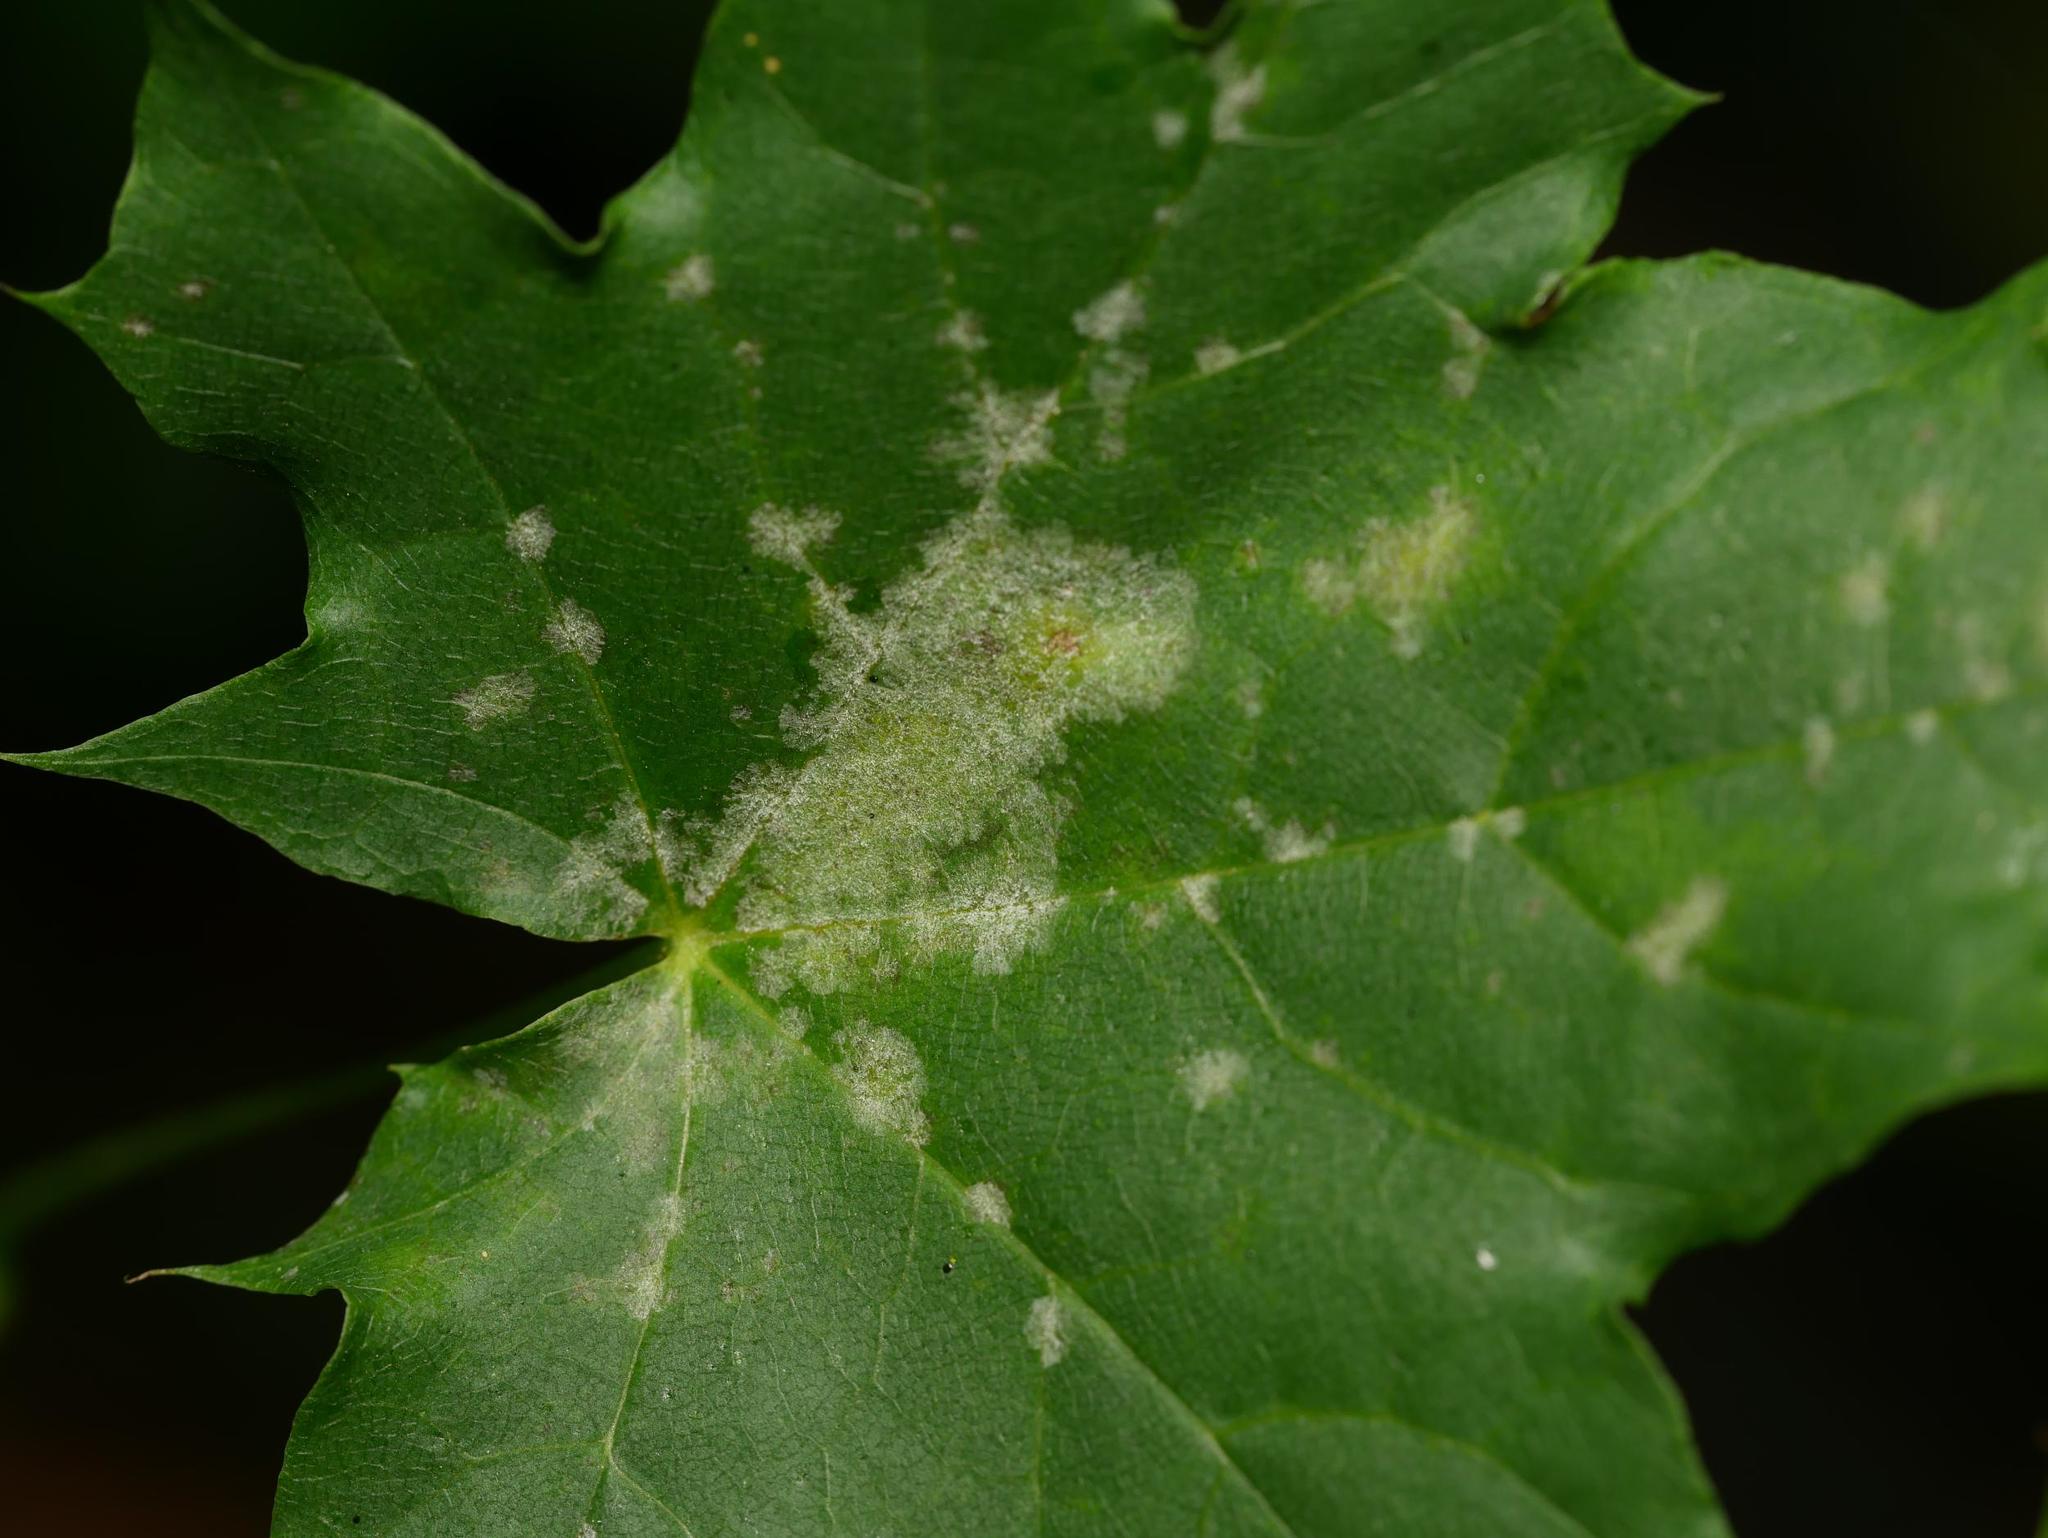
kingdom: Fungi
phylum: Ascomycota
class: Leotiomycetes
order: Helotiales
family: Erysiphaceae
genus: Sawadaea
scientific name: Sawadaea tulasnei
